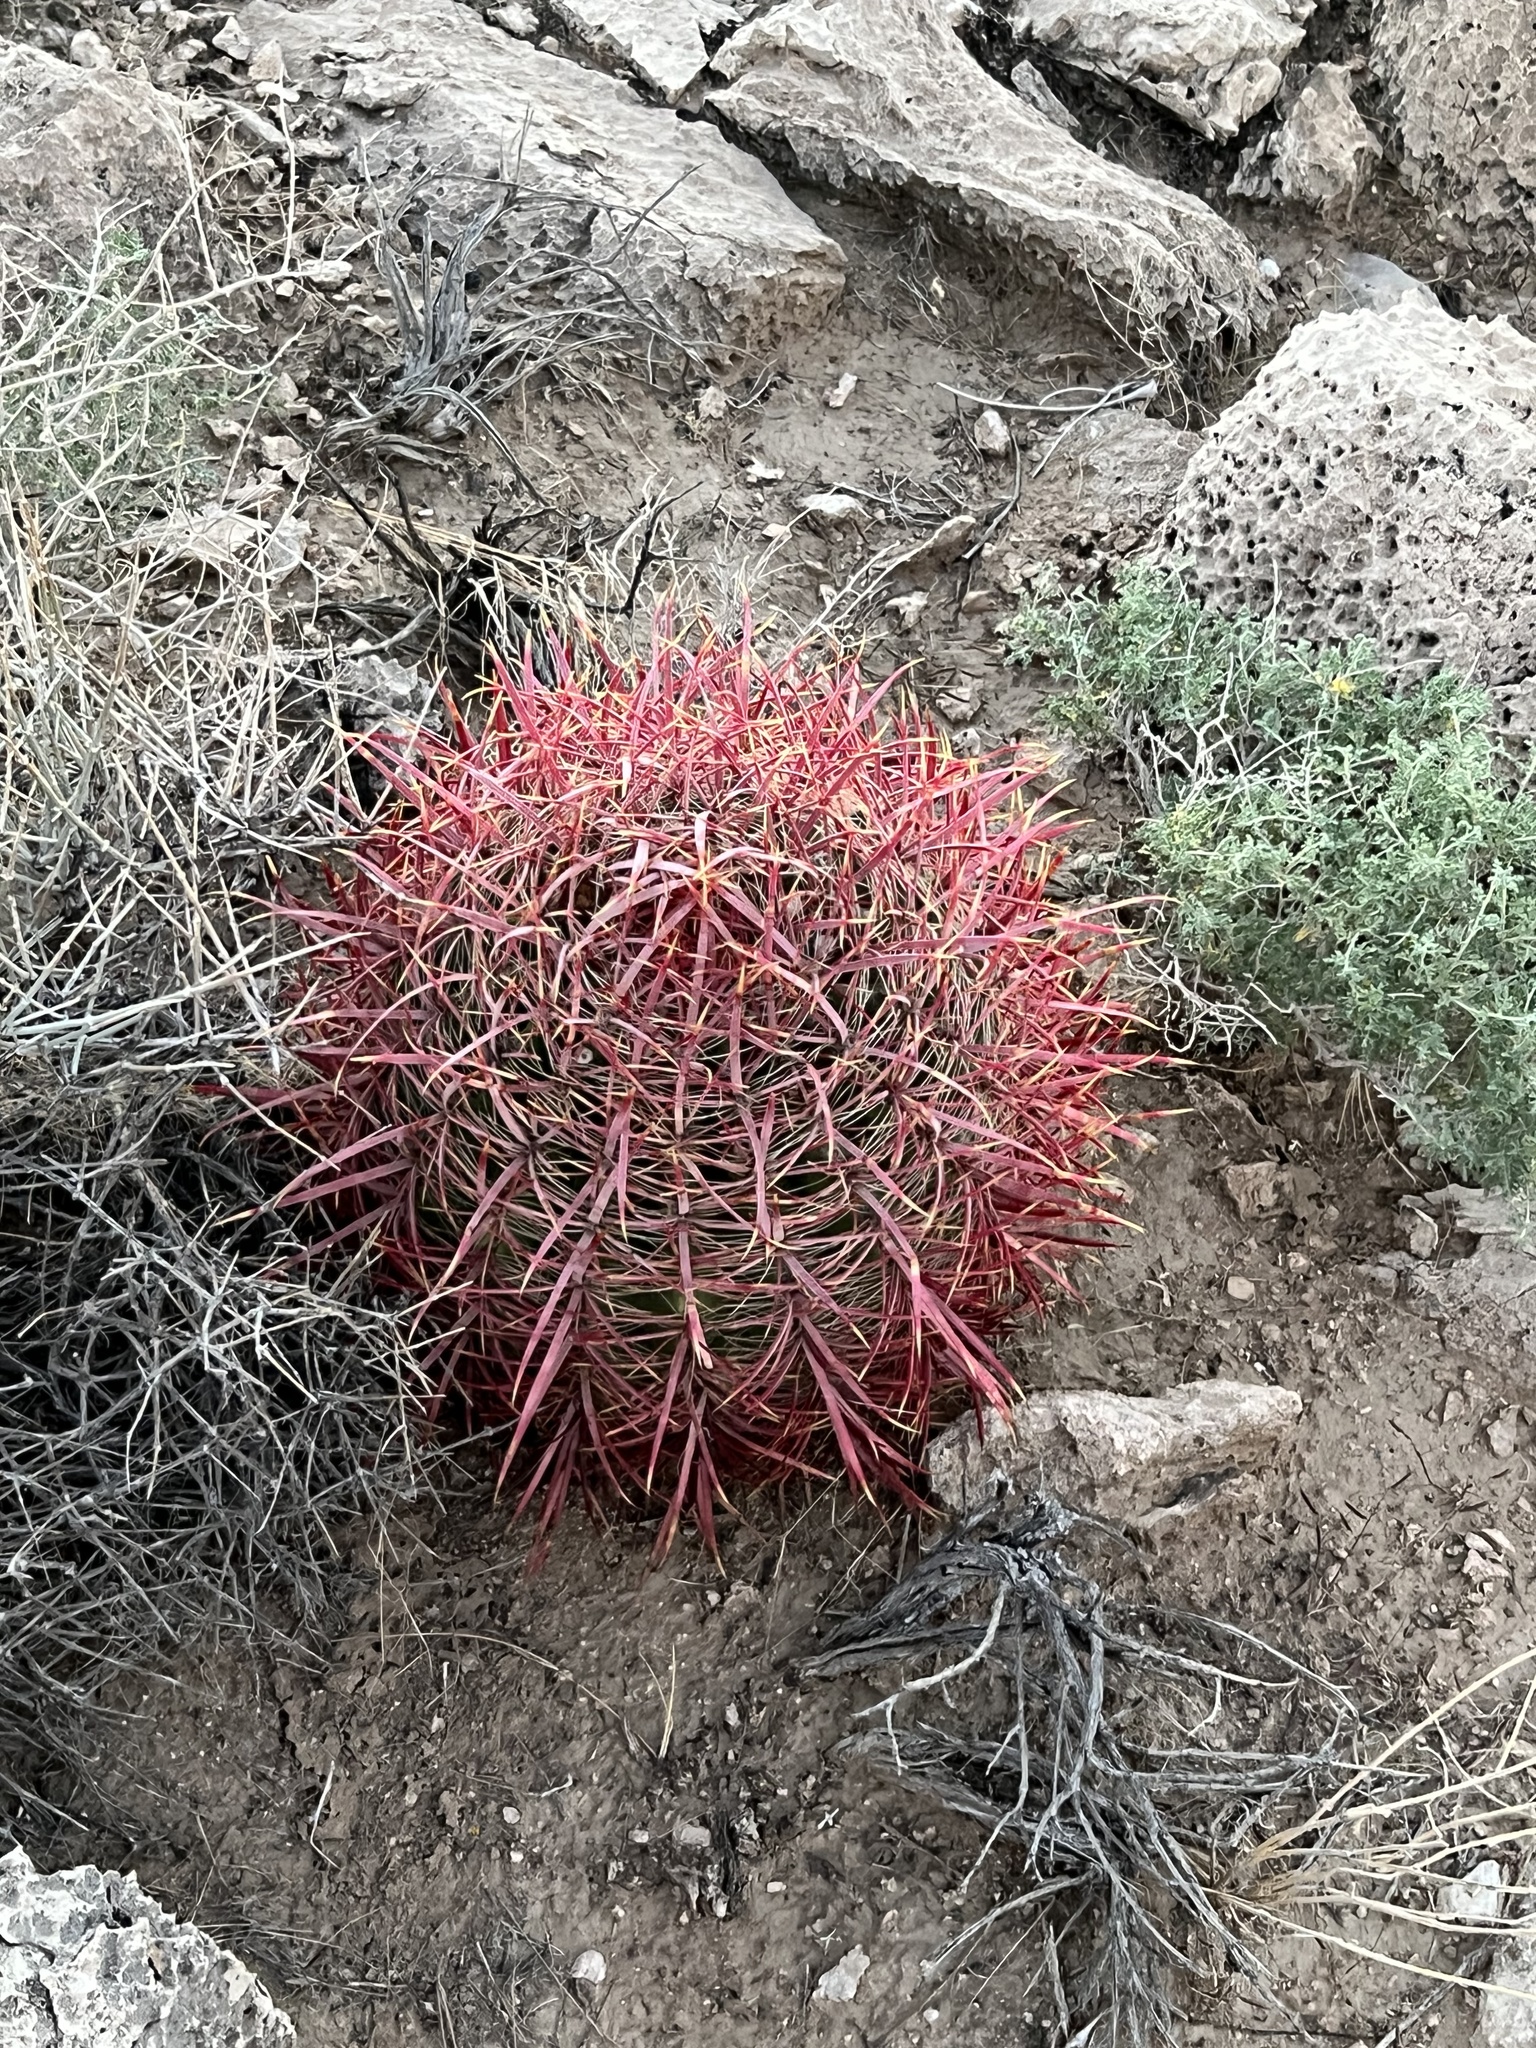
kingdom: Plantae
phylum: Tracheophyta
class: Magnoliopsida
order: Caryophyllales
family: Cactaceae
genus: Ferocactus
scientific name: Ferocactus cylindraceus
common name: California barrel cactus
